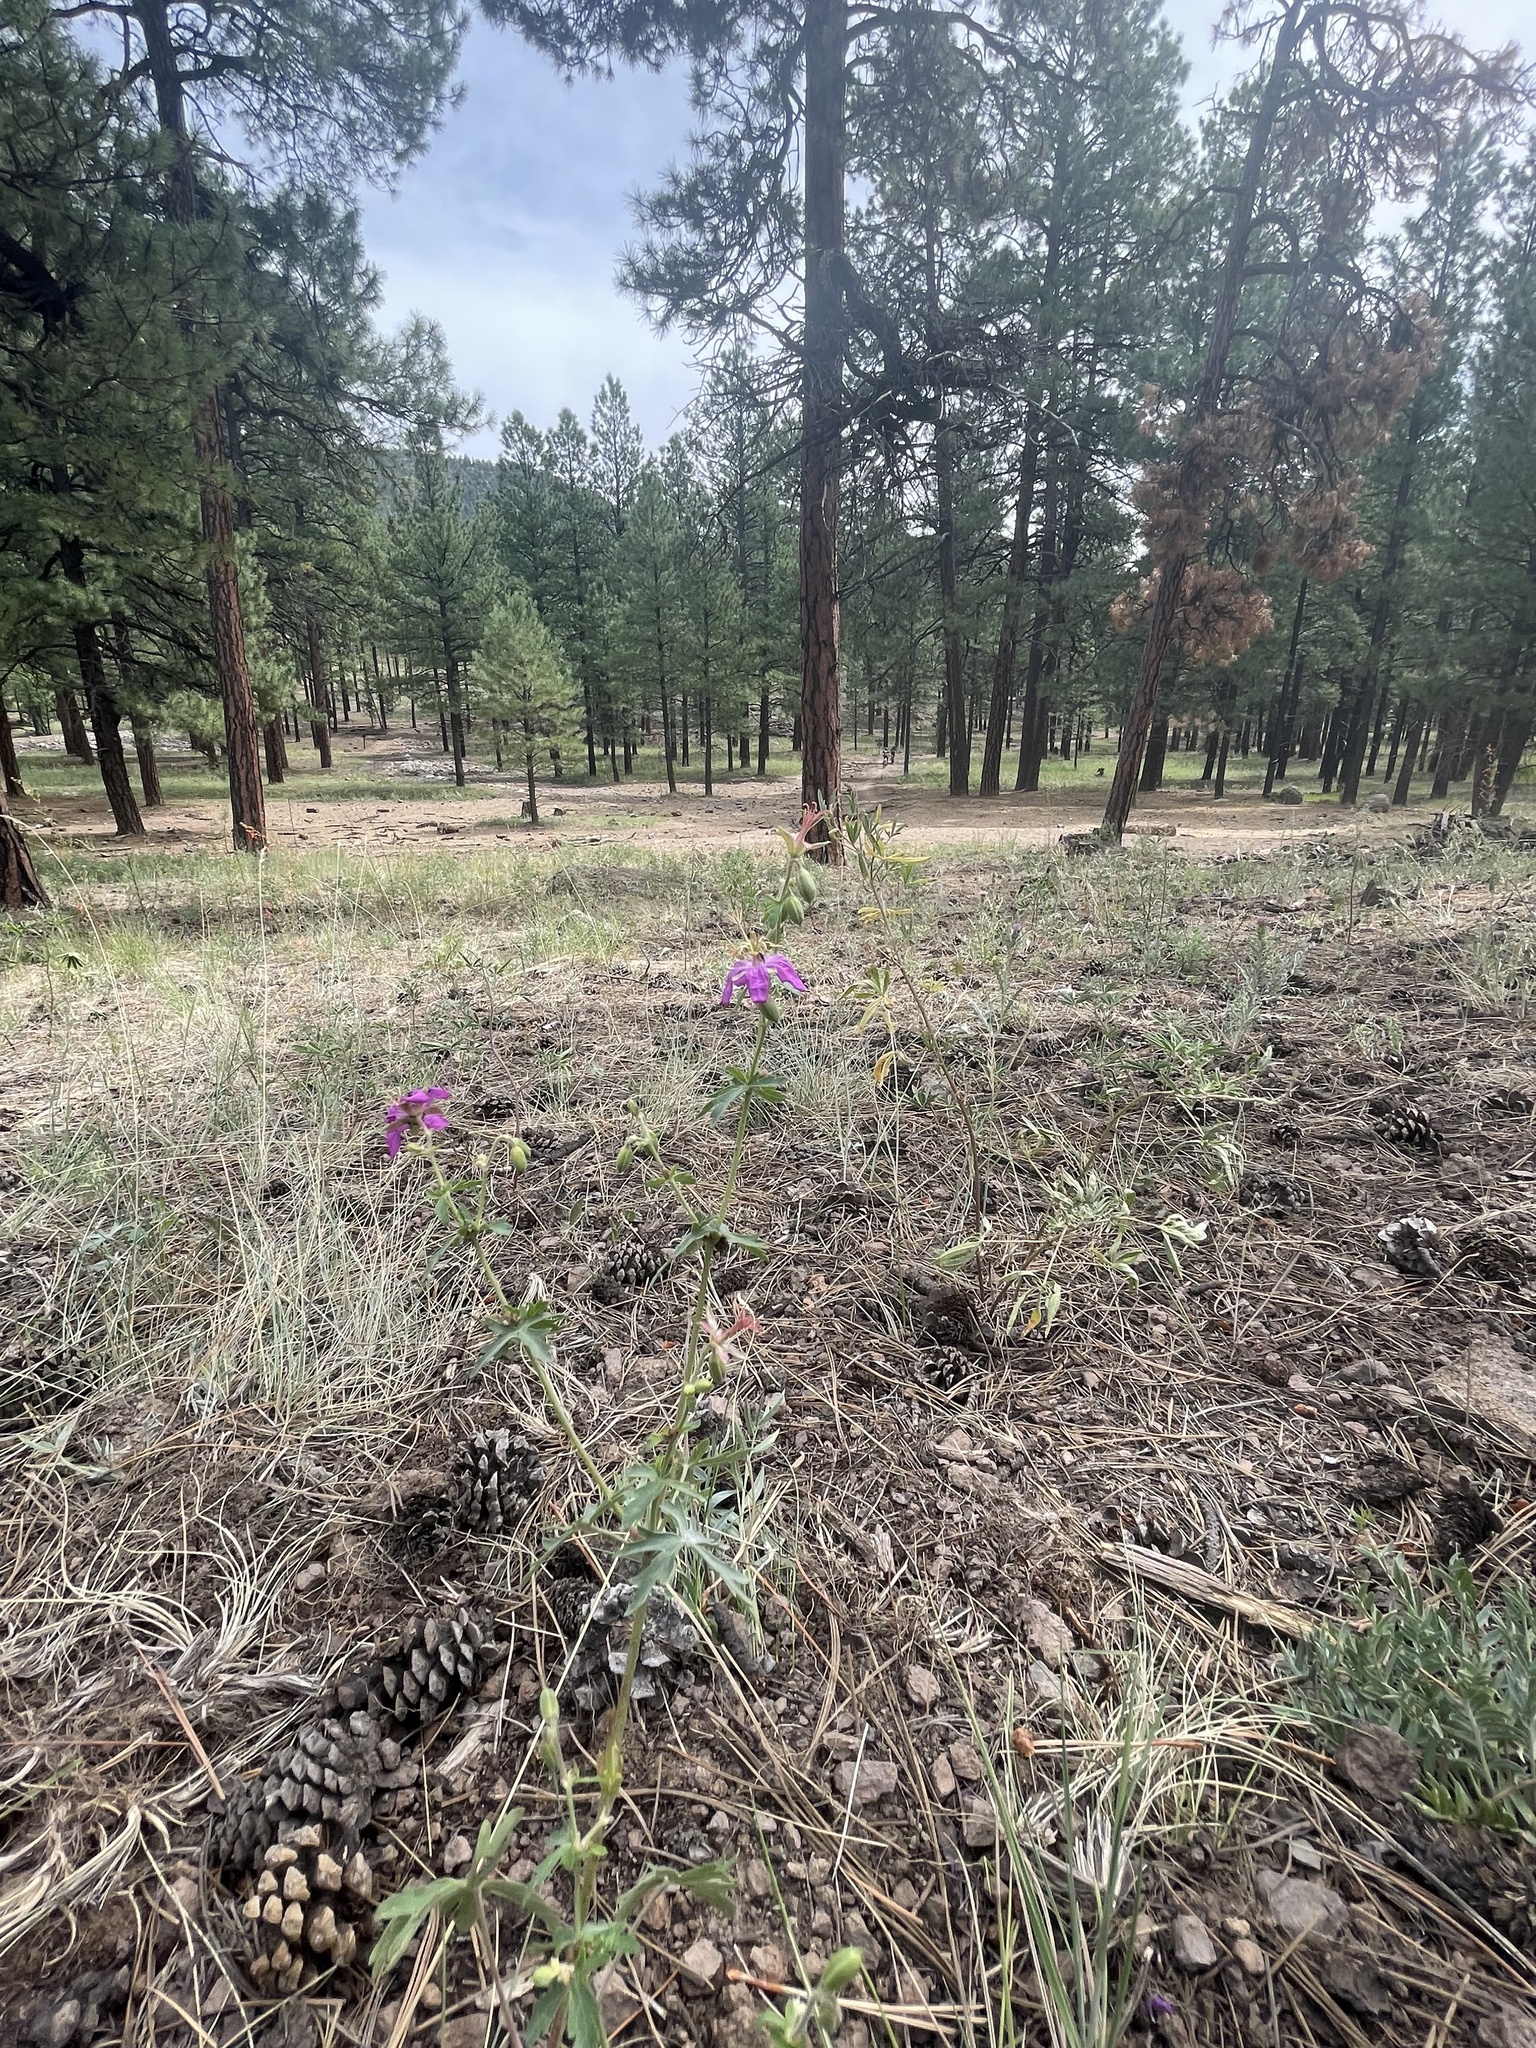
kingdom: Plantae
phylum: Tracheophyta
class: Liliopsida
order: Asparagales
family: Asparagaceae
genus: Echeandia
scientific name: Echeandia flavescens
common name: Amberlily
